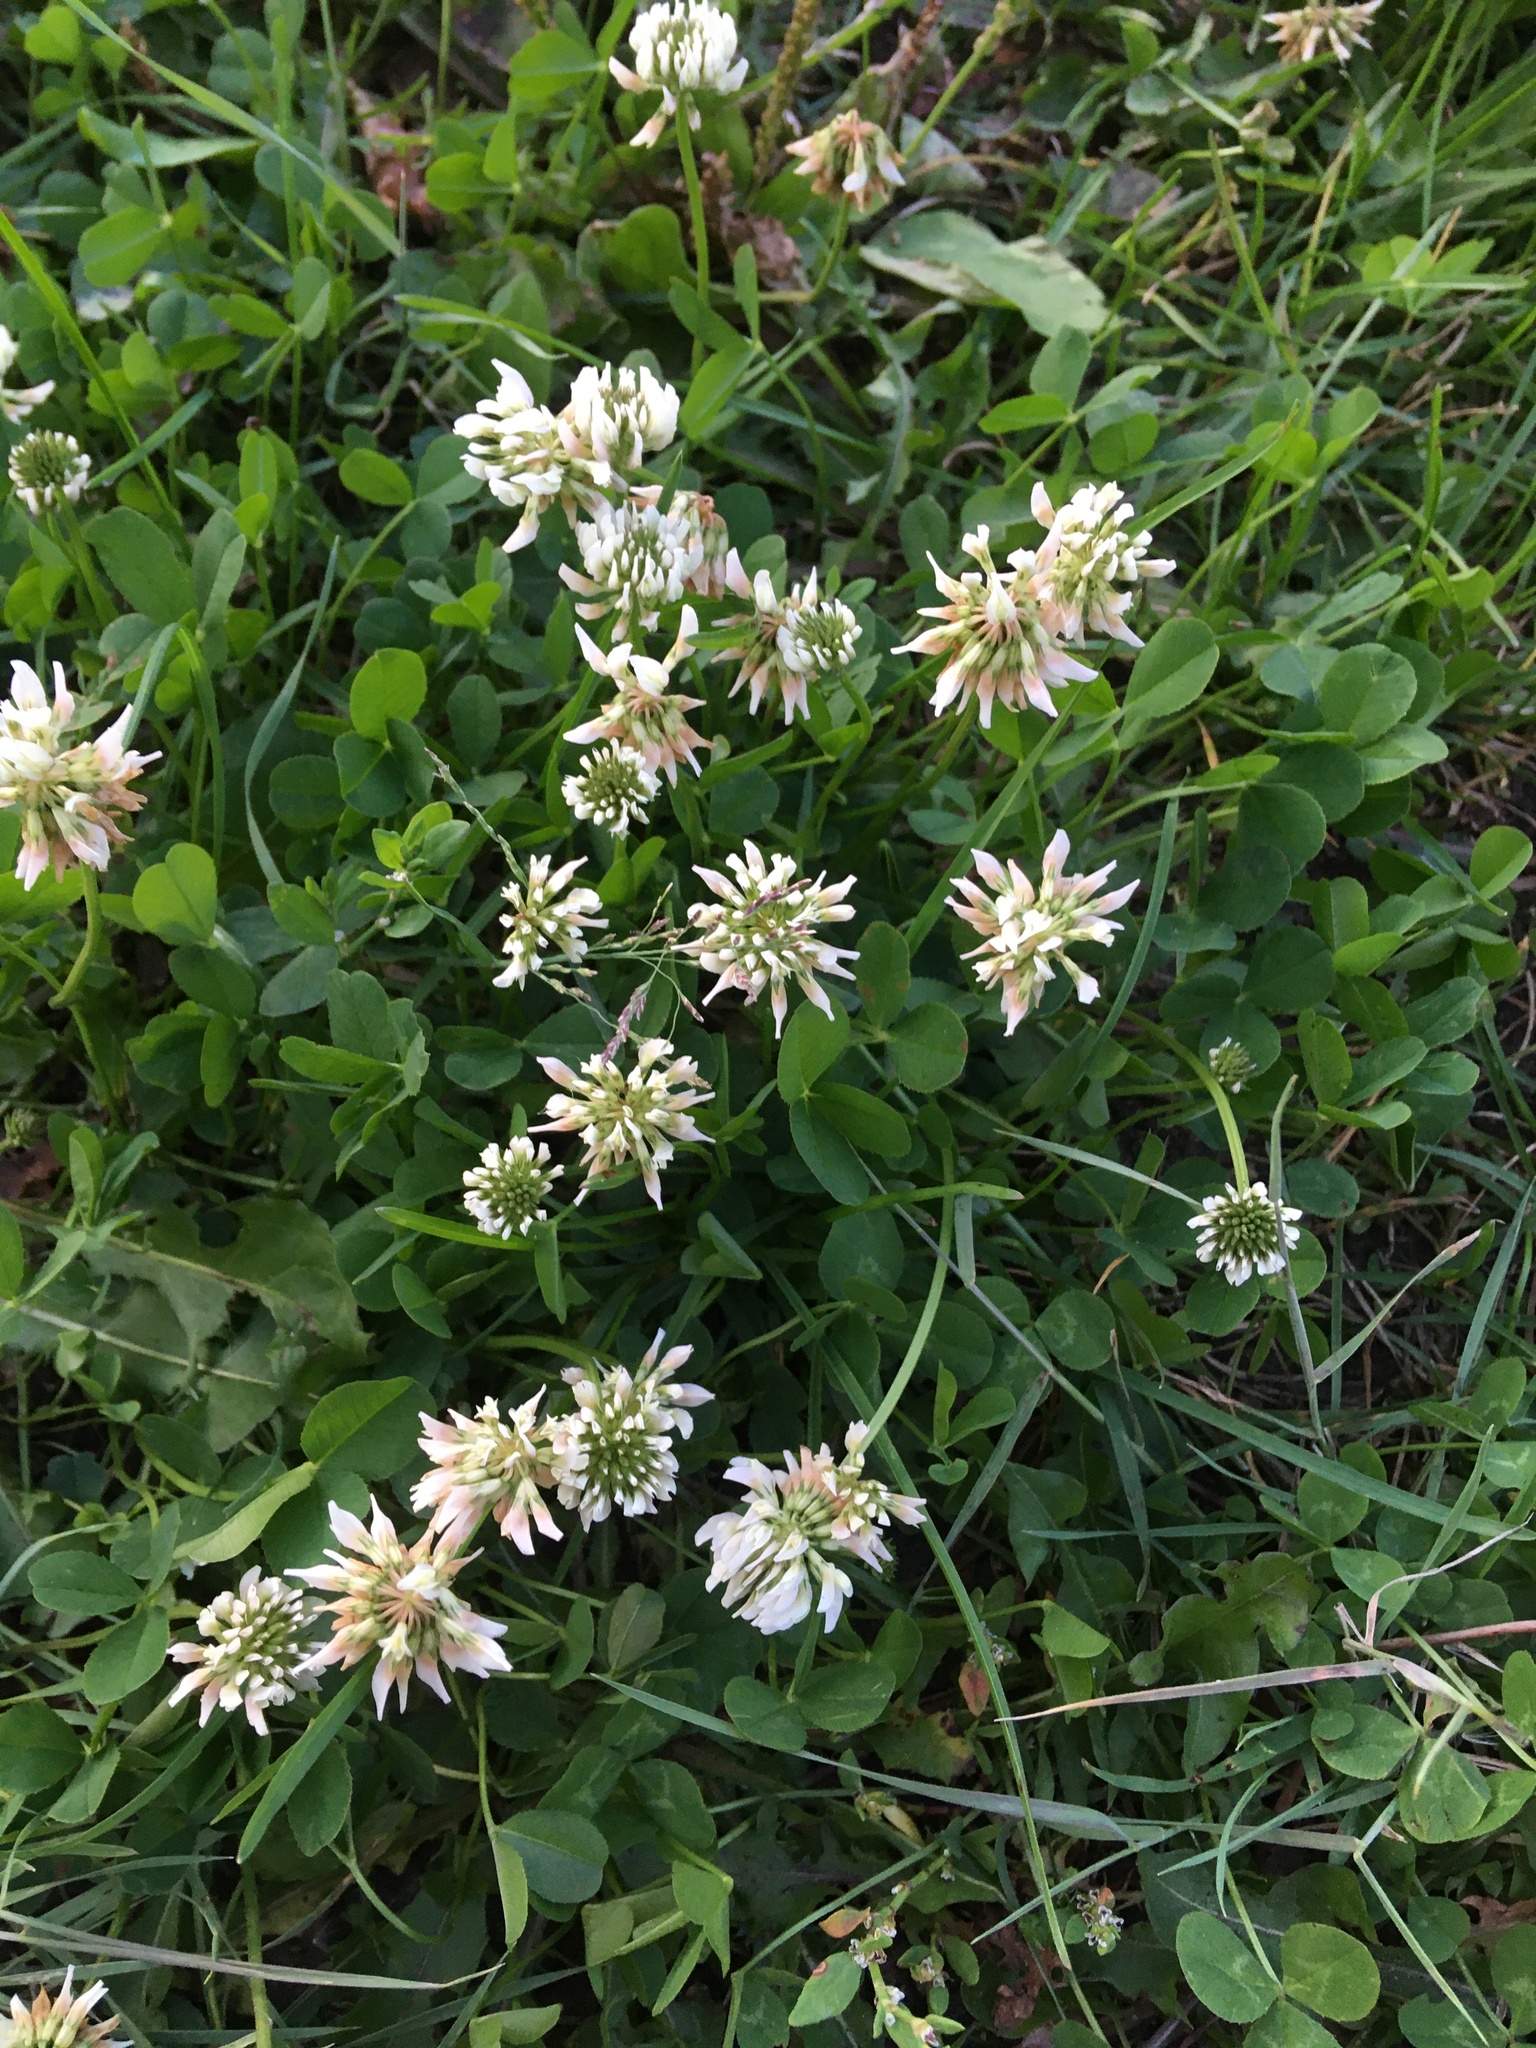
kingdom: Plantae
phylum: Tracheophyta
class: Magnoliopsida
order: Fabales
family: Fabaceae
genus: Trifolium
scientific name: Trifolium repens
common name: White clover
